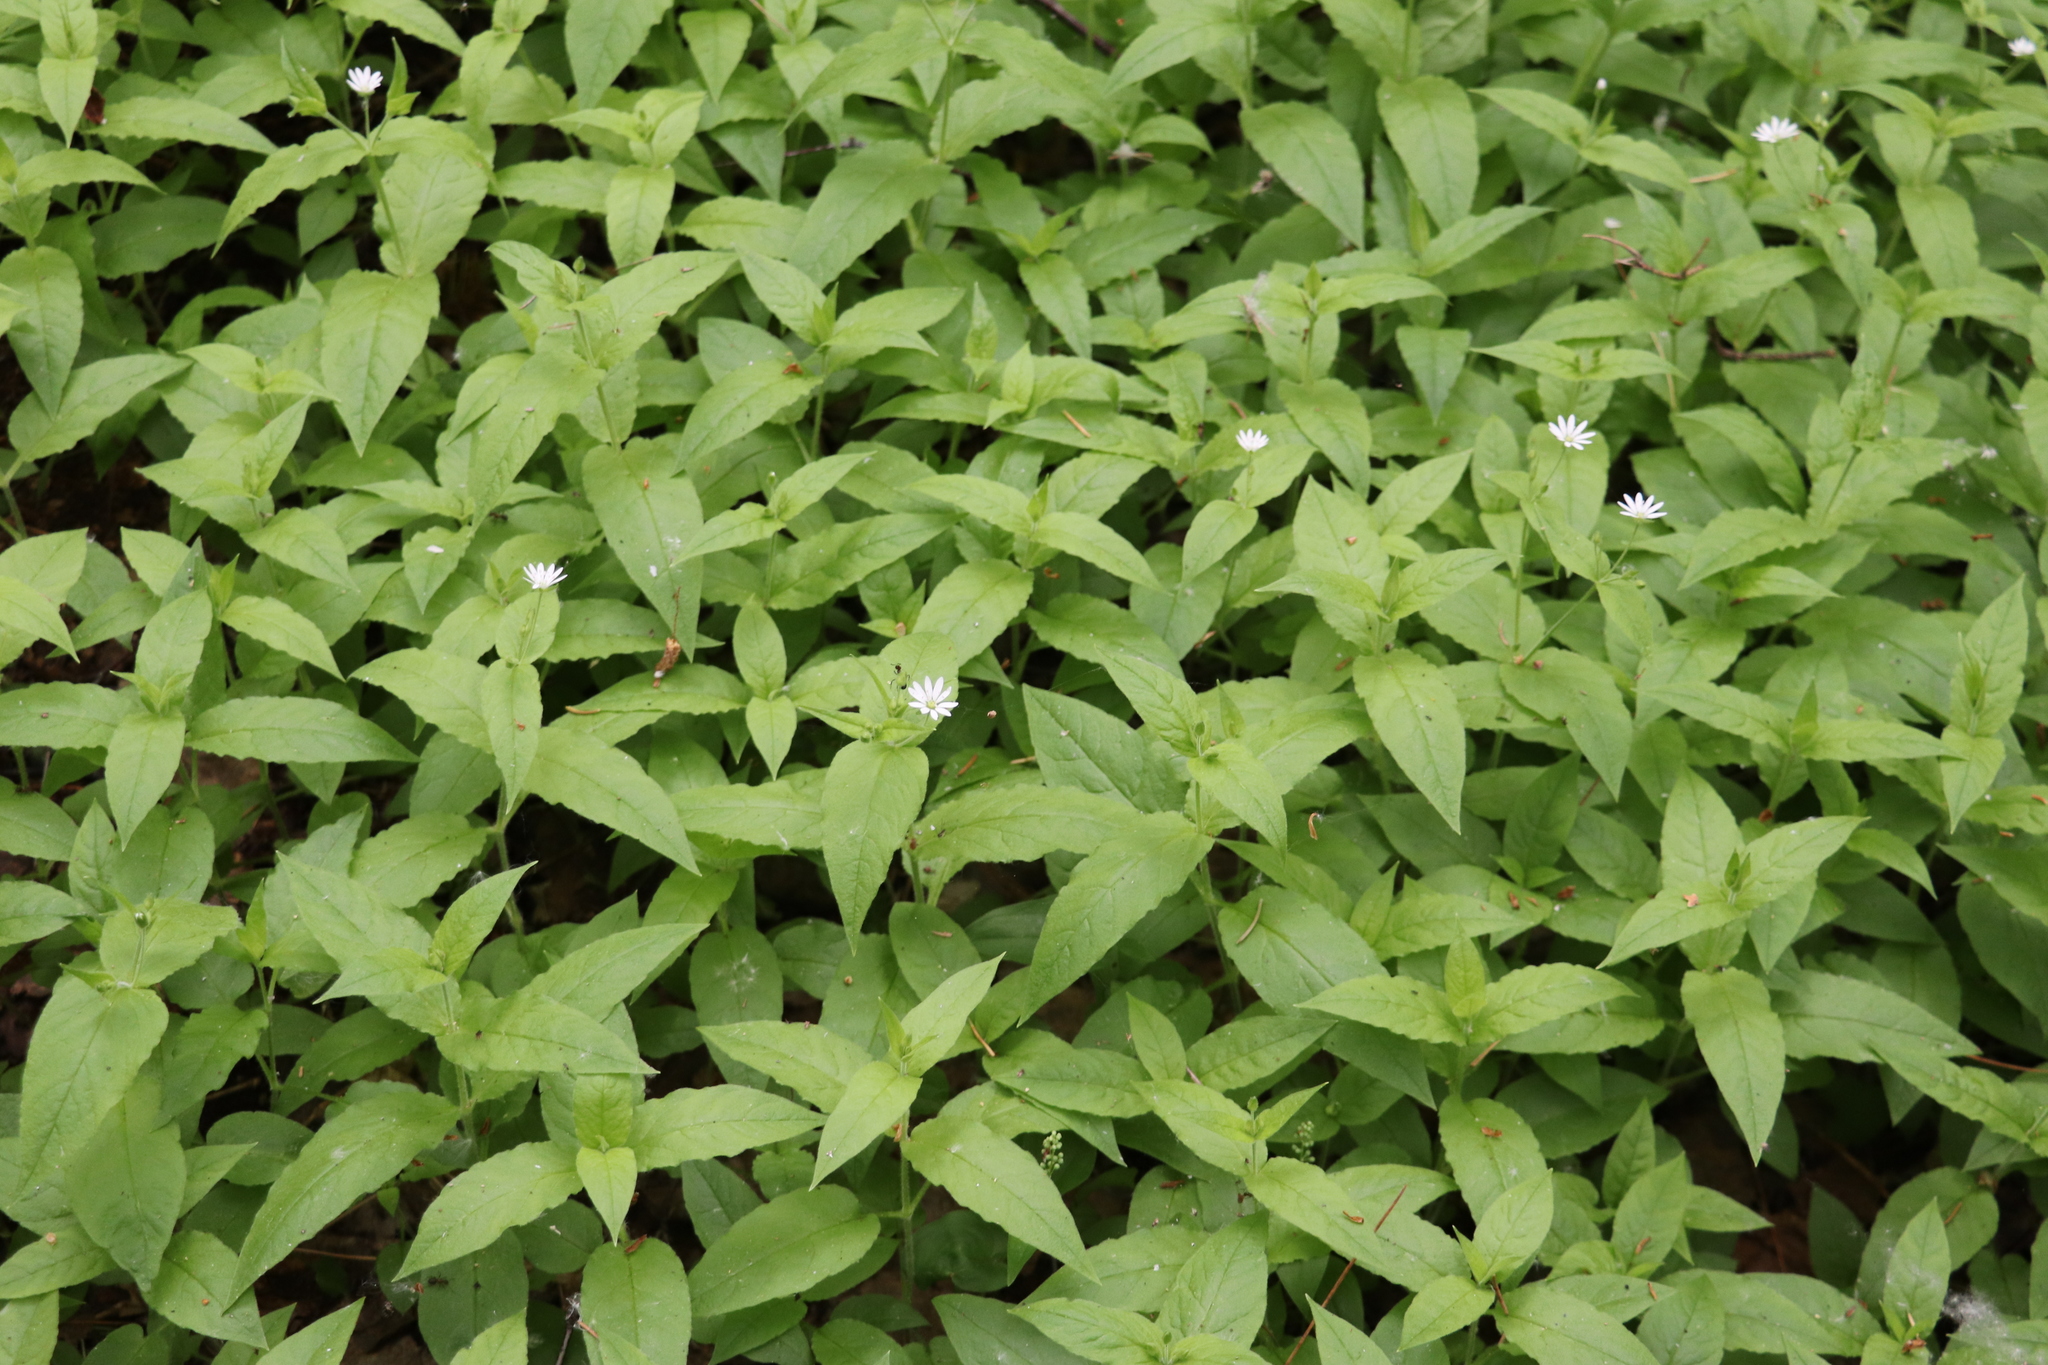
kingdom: Plantae
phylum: Tracheophyta
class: Magnoliopsida
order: Caryophyllales
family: Caryophyllaceae
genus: Stellaria
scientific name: Stellaria bungeana
